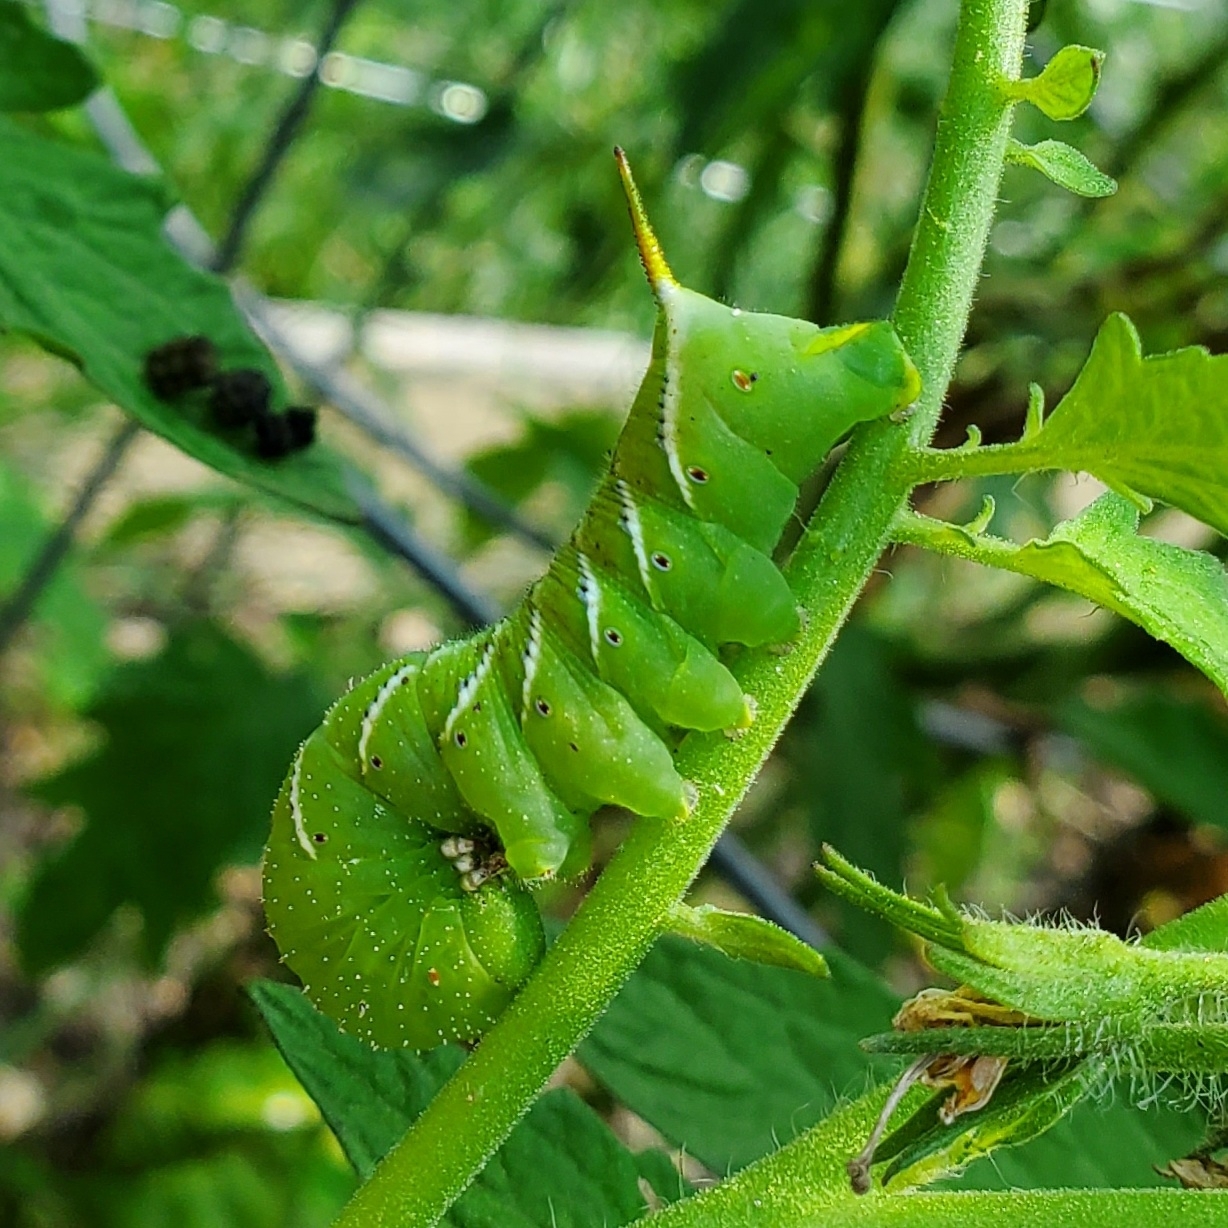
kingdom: Animalia
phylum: Arthropoda
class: Insecta
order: Lepidoptera
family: Sphingidae
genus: Manduca
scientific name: Manduca sexta
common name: Carolina sphinx
